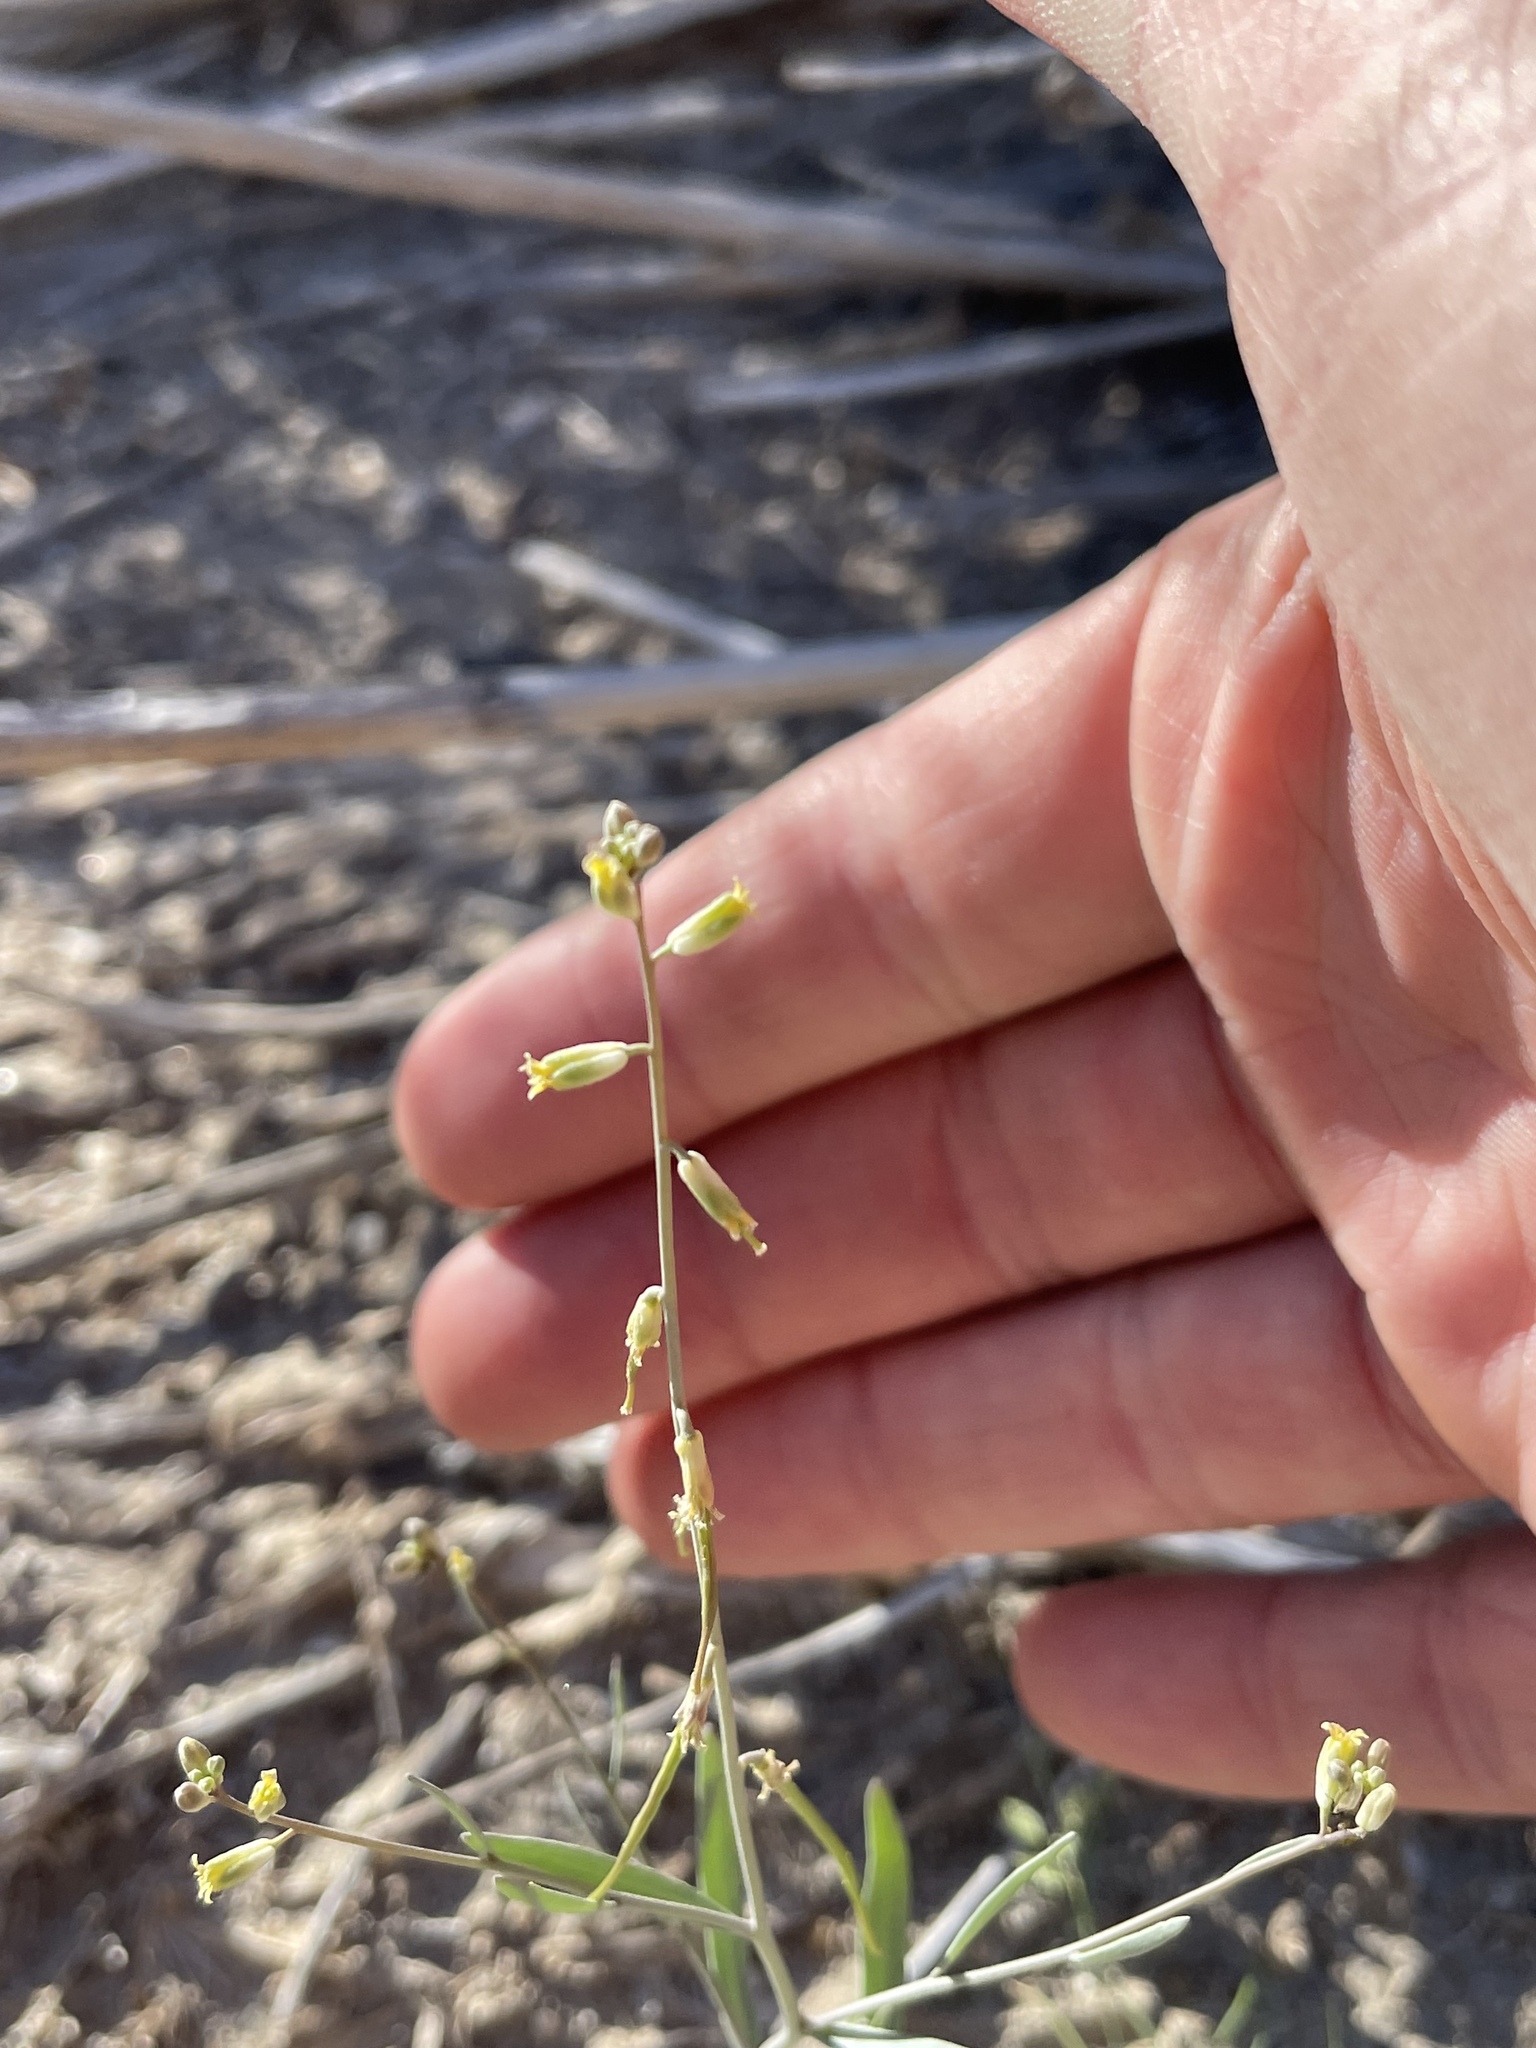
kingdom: Plantae
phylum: Tracheophyta
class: Magnoliopsida
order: Brassicales
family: Brassicaceae
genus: Streptanthus
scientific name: Streptanthus longirostris
